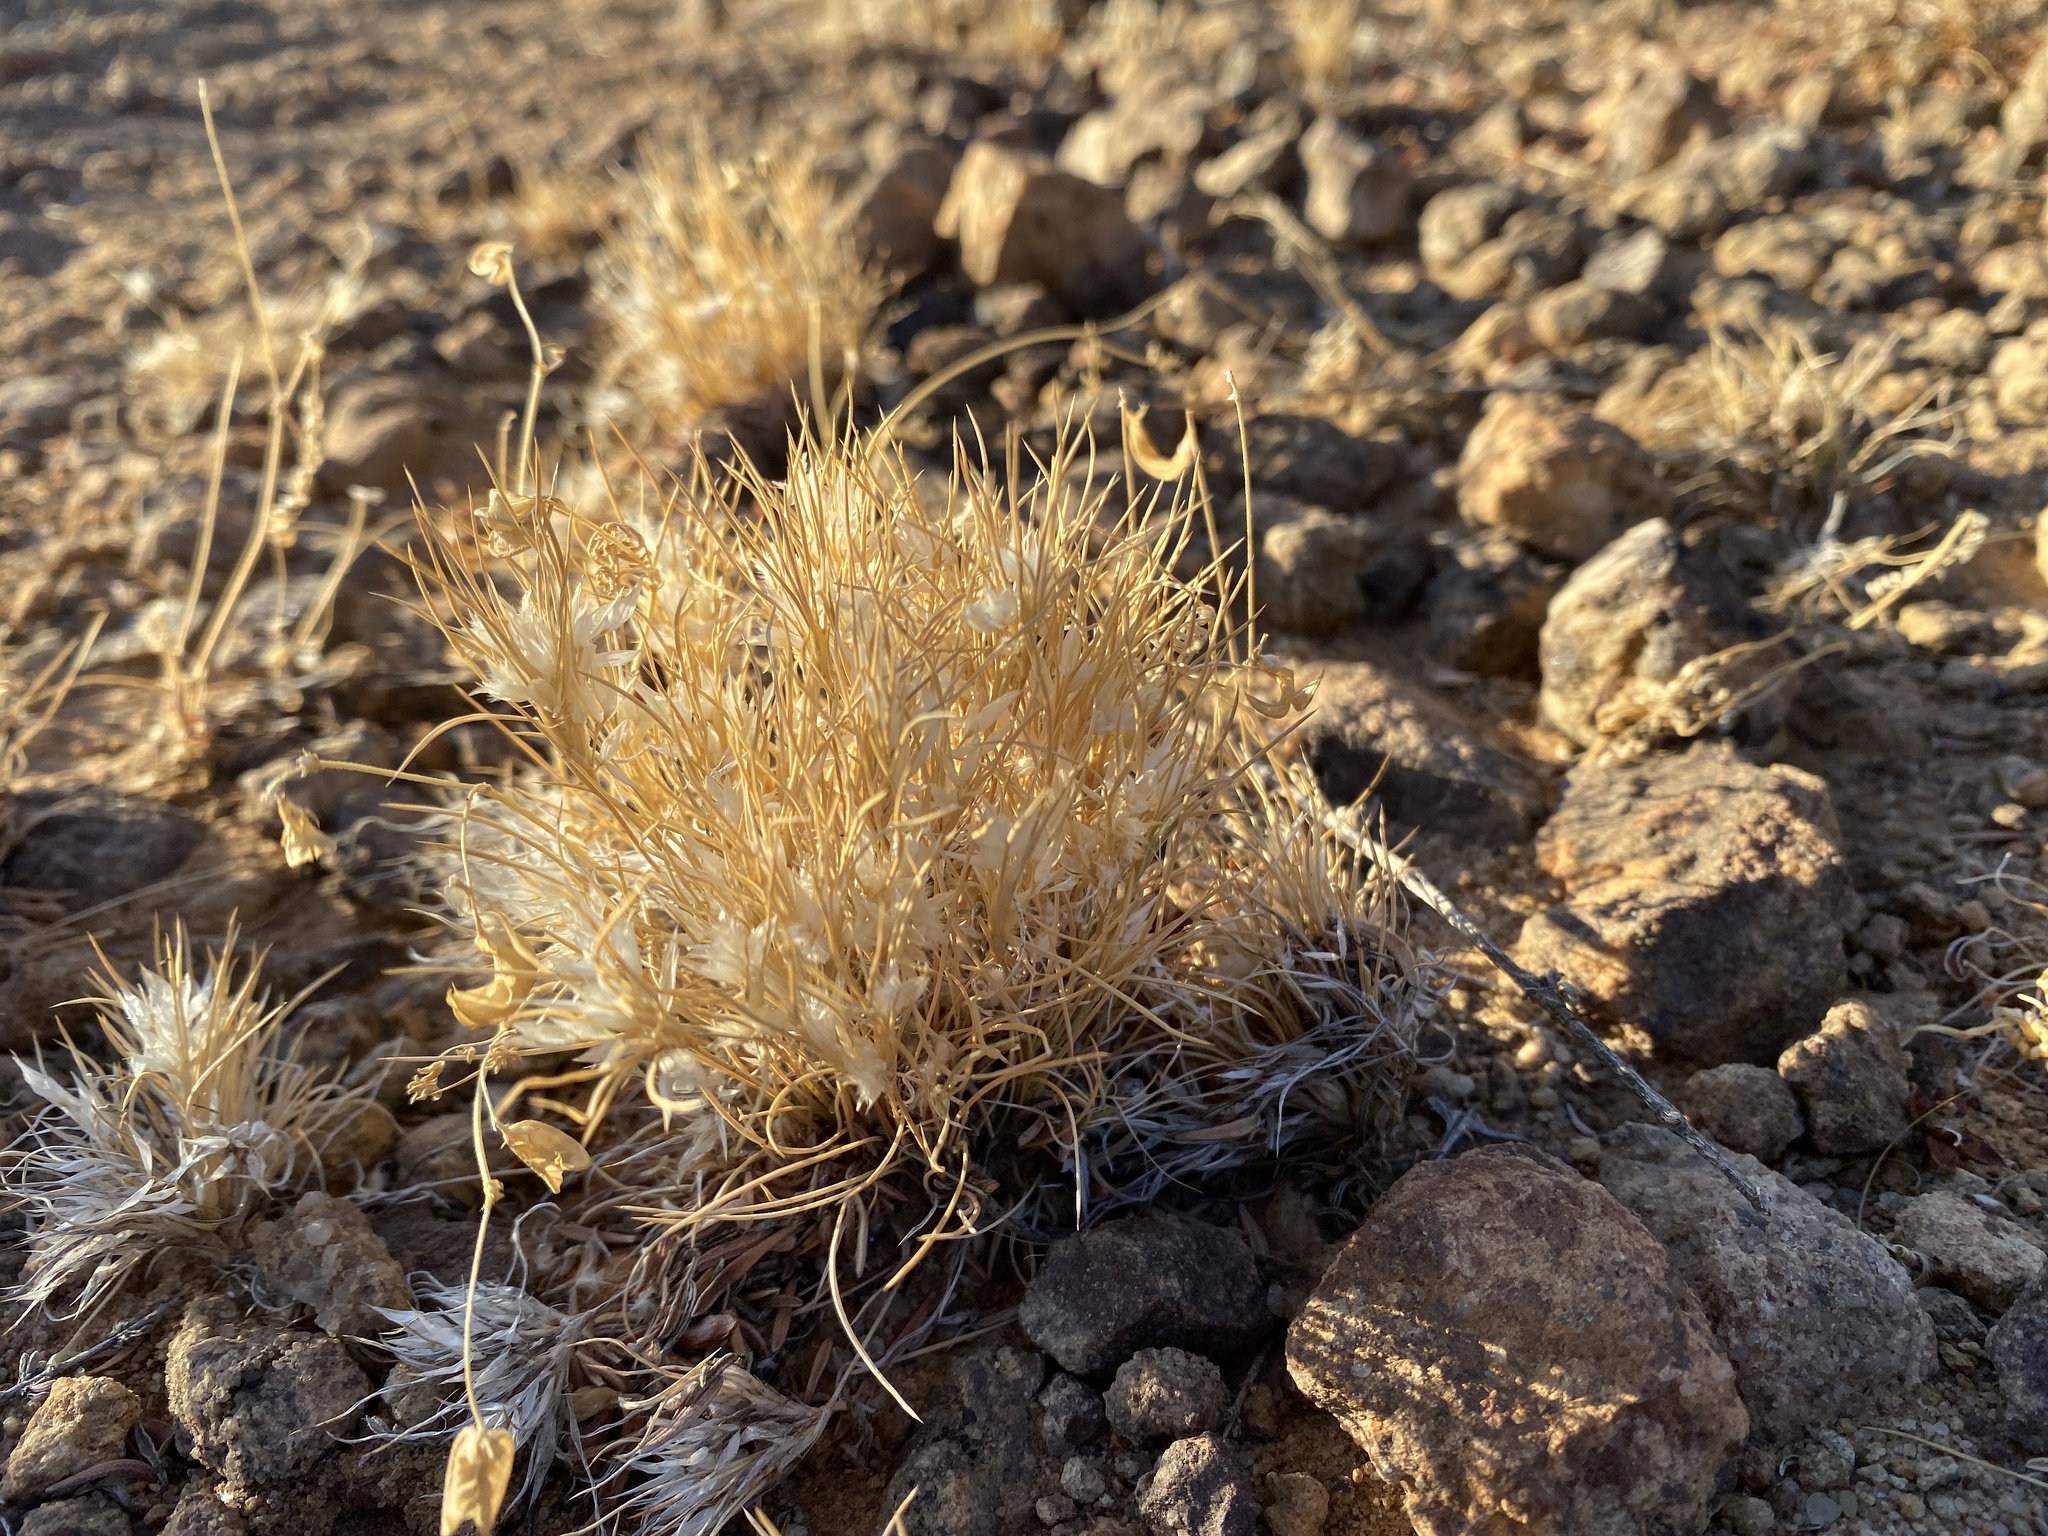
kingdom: Plantae
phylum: Tracheophyta
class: Liliopsida
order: Poales
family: Poaceae
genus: Dasyochloa
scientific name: Dasyochloa pulchella
